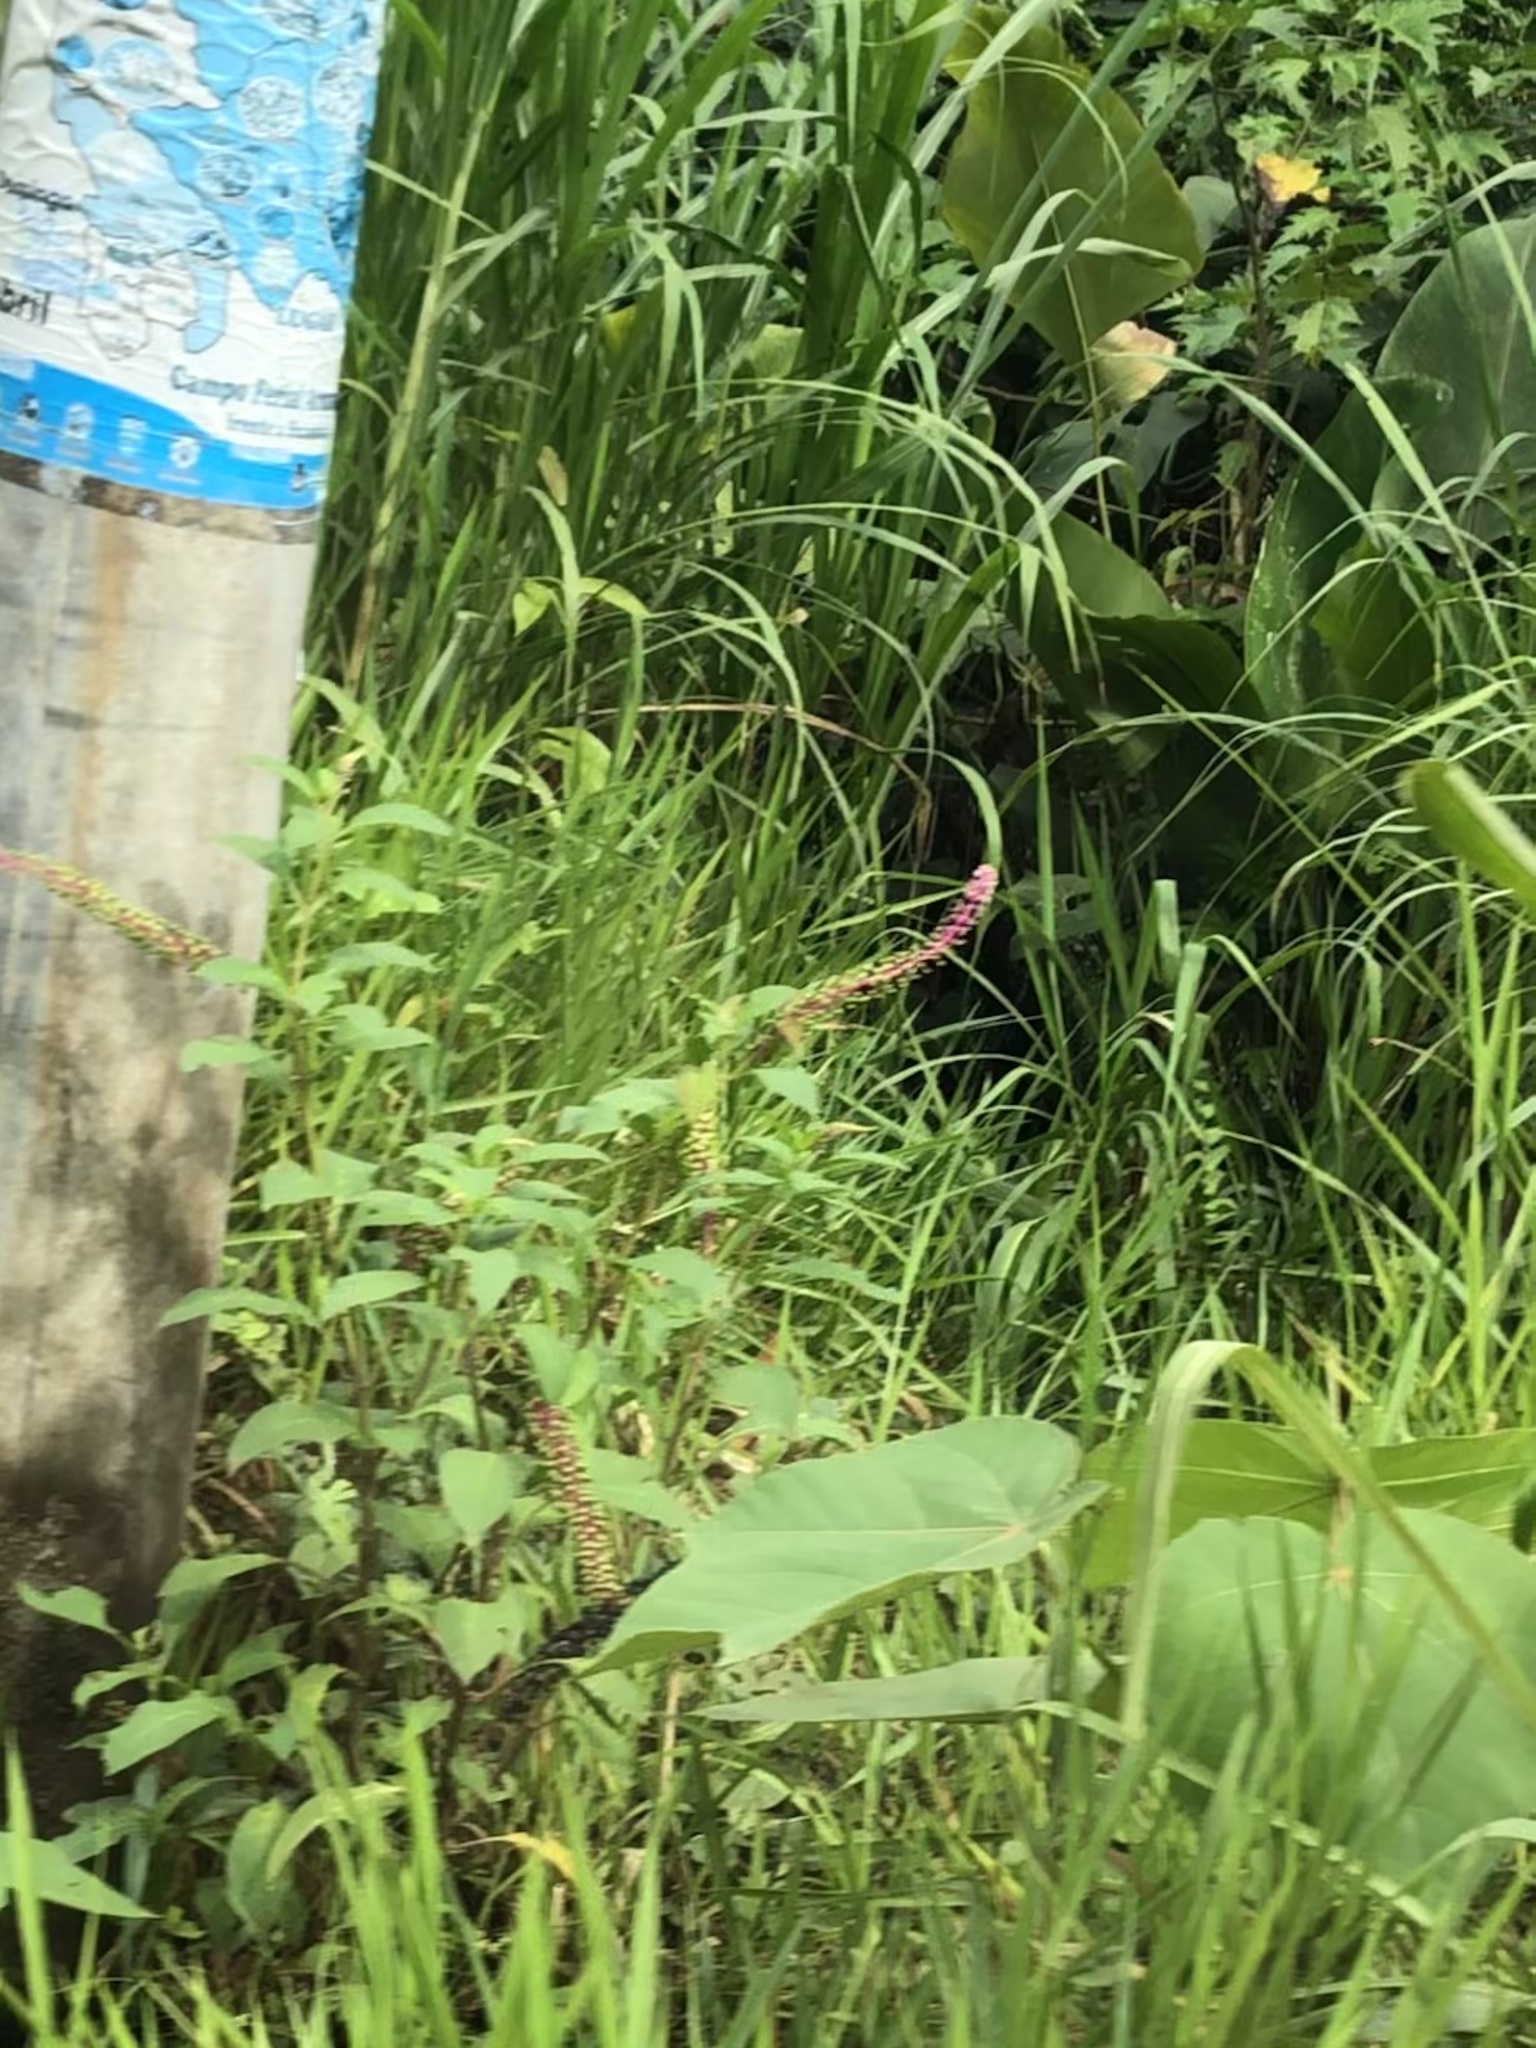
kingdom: Plantae
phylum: Tracheophyta
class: Magnoliopsida
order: Caryophyllales
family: Phytolaccaceae
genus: Phytolacca
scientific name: Phytolacca rivinoides
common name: Venezuelan pokeweed
